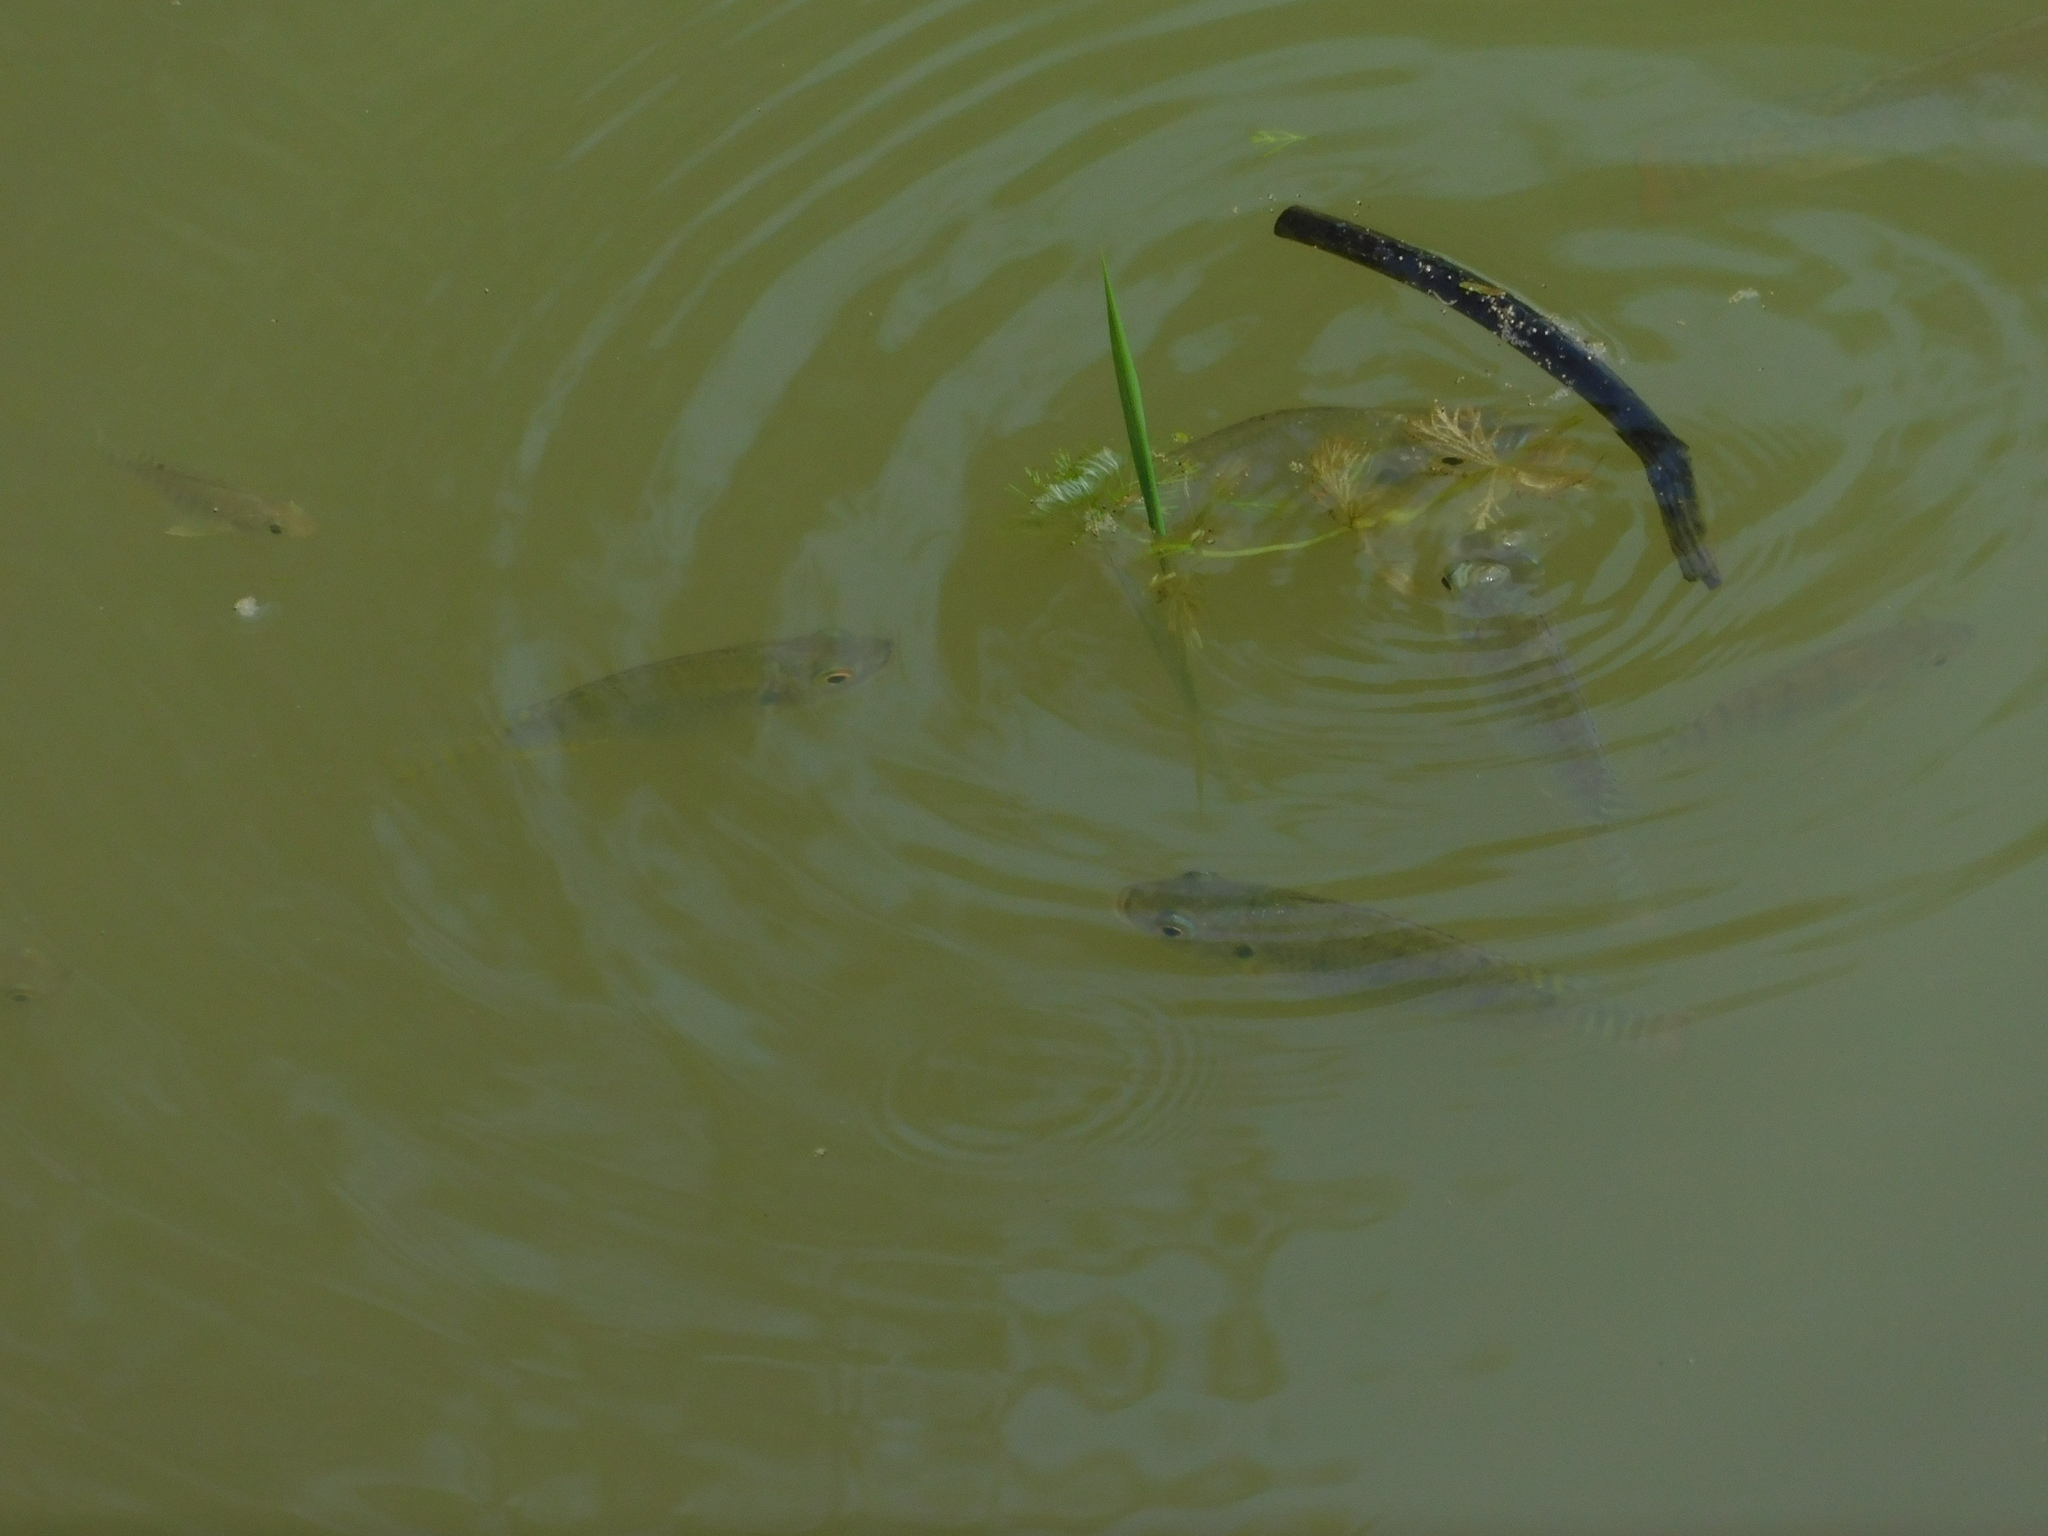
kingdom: Animalia
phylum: Chordata
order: Perciformes
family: Cichlidae
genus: Oreochromis
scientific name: Oreochromis niloticus
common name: Nile tilapia
